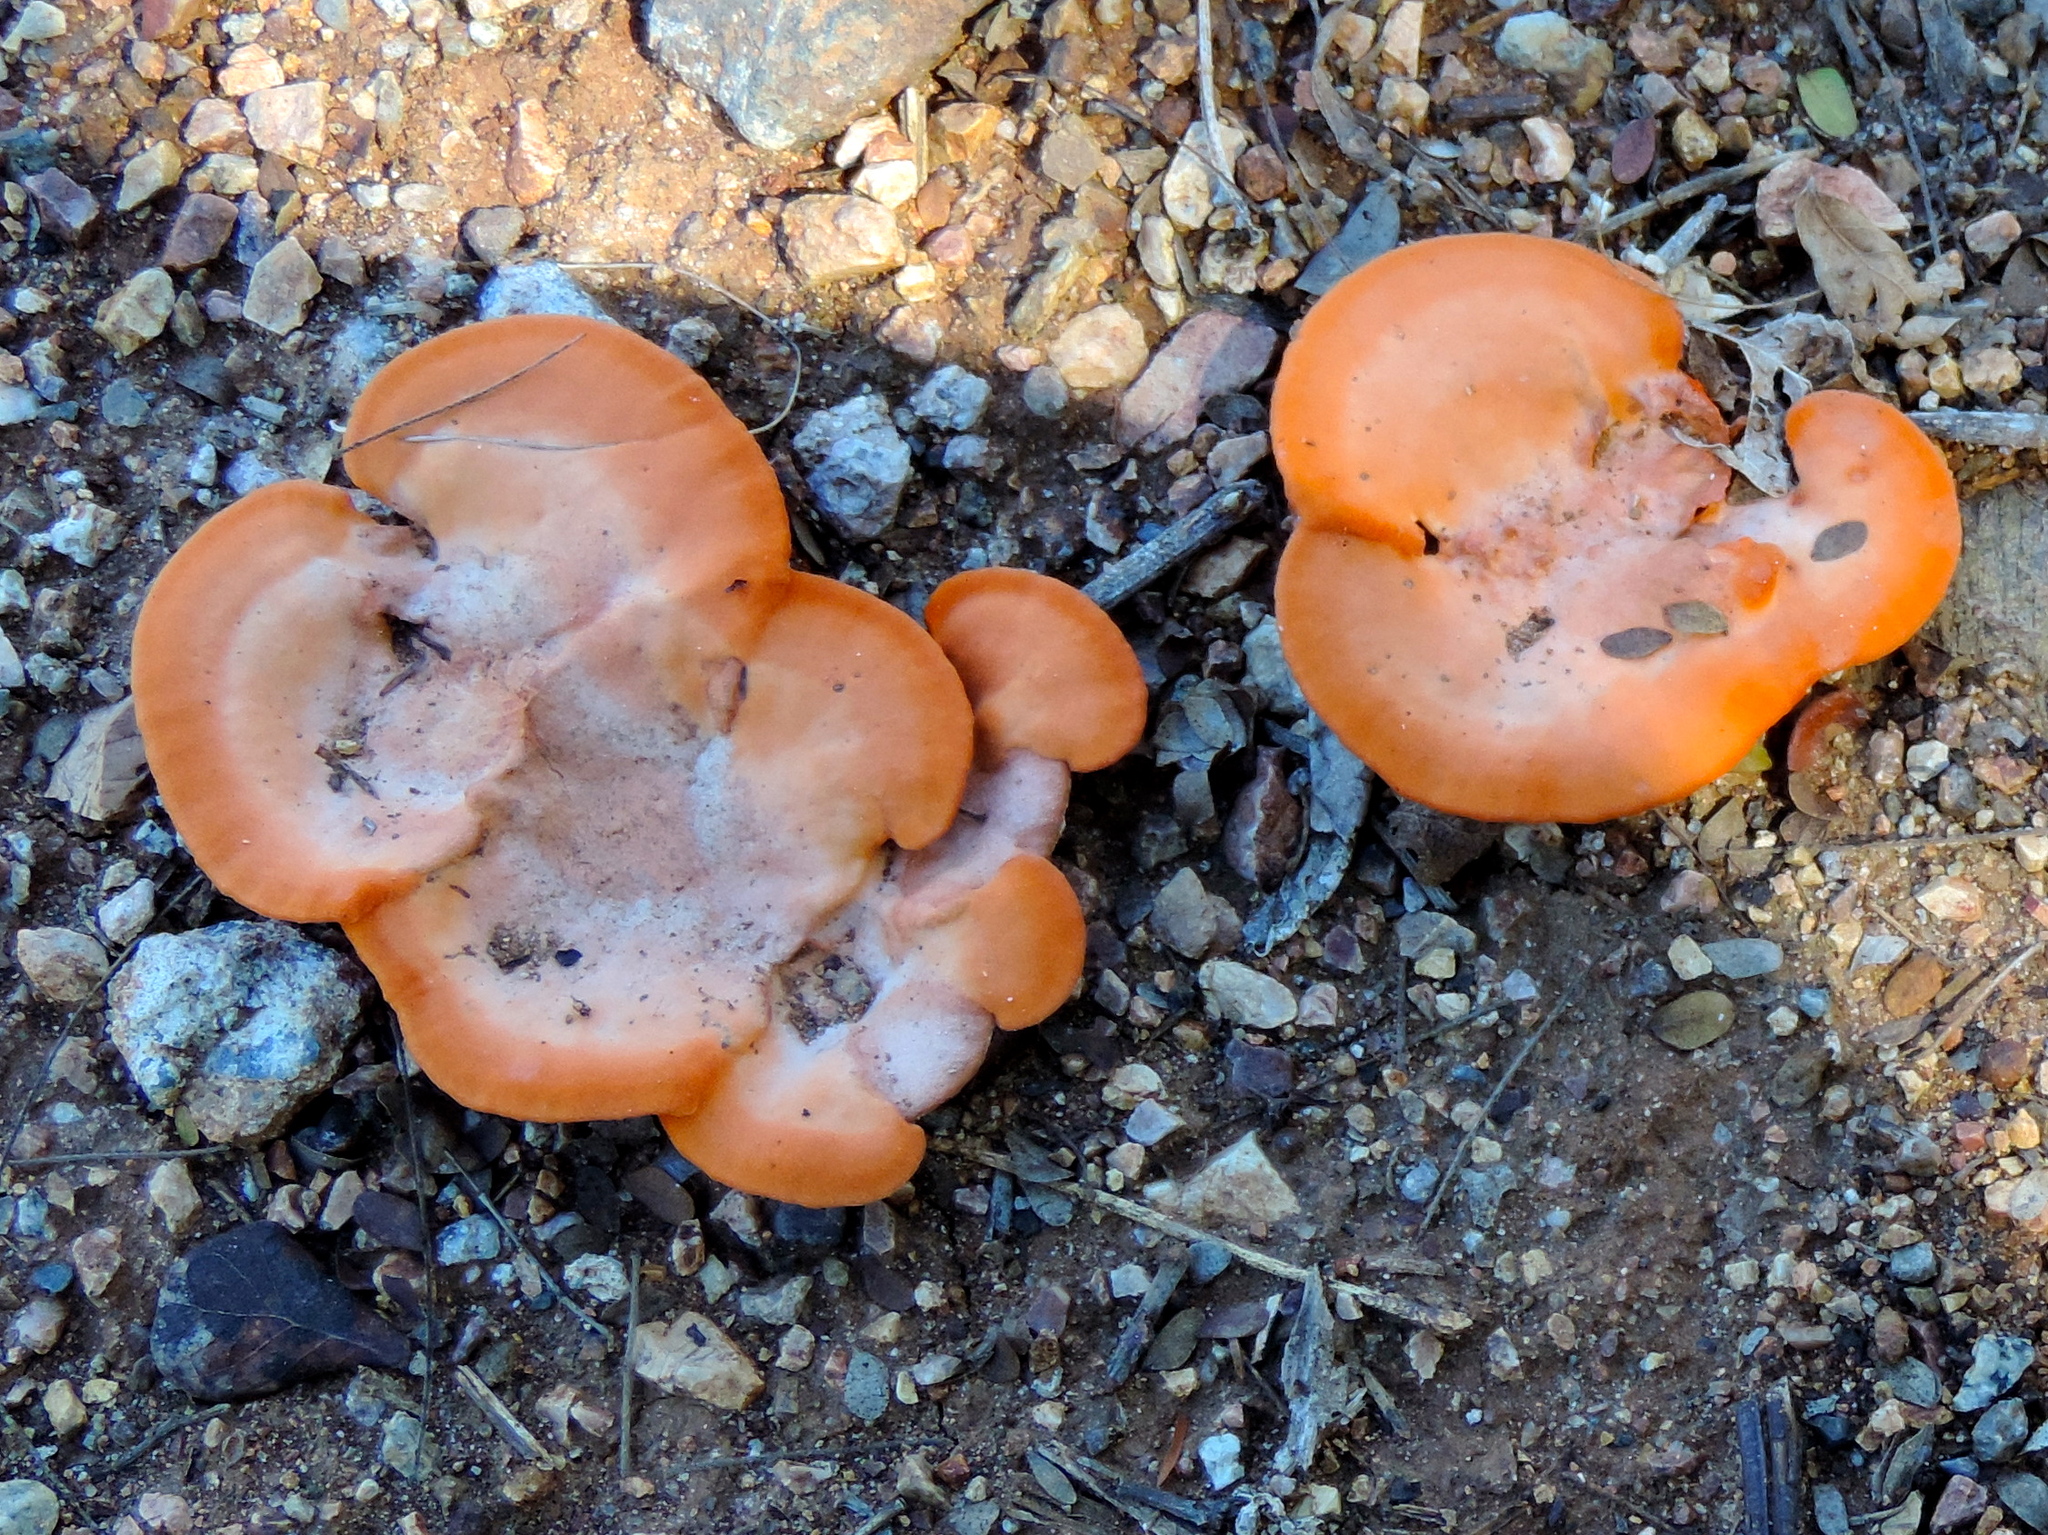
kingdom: Fungi
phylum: Basidiomycota
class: Agaricomycetes
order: Polyporales
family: Polyporaceae
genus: Trametes
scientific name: Trametes
